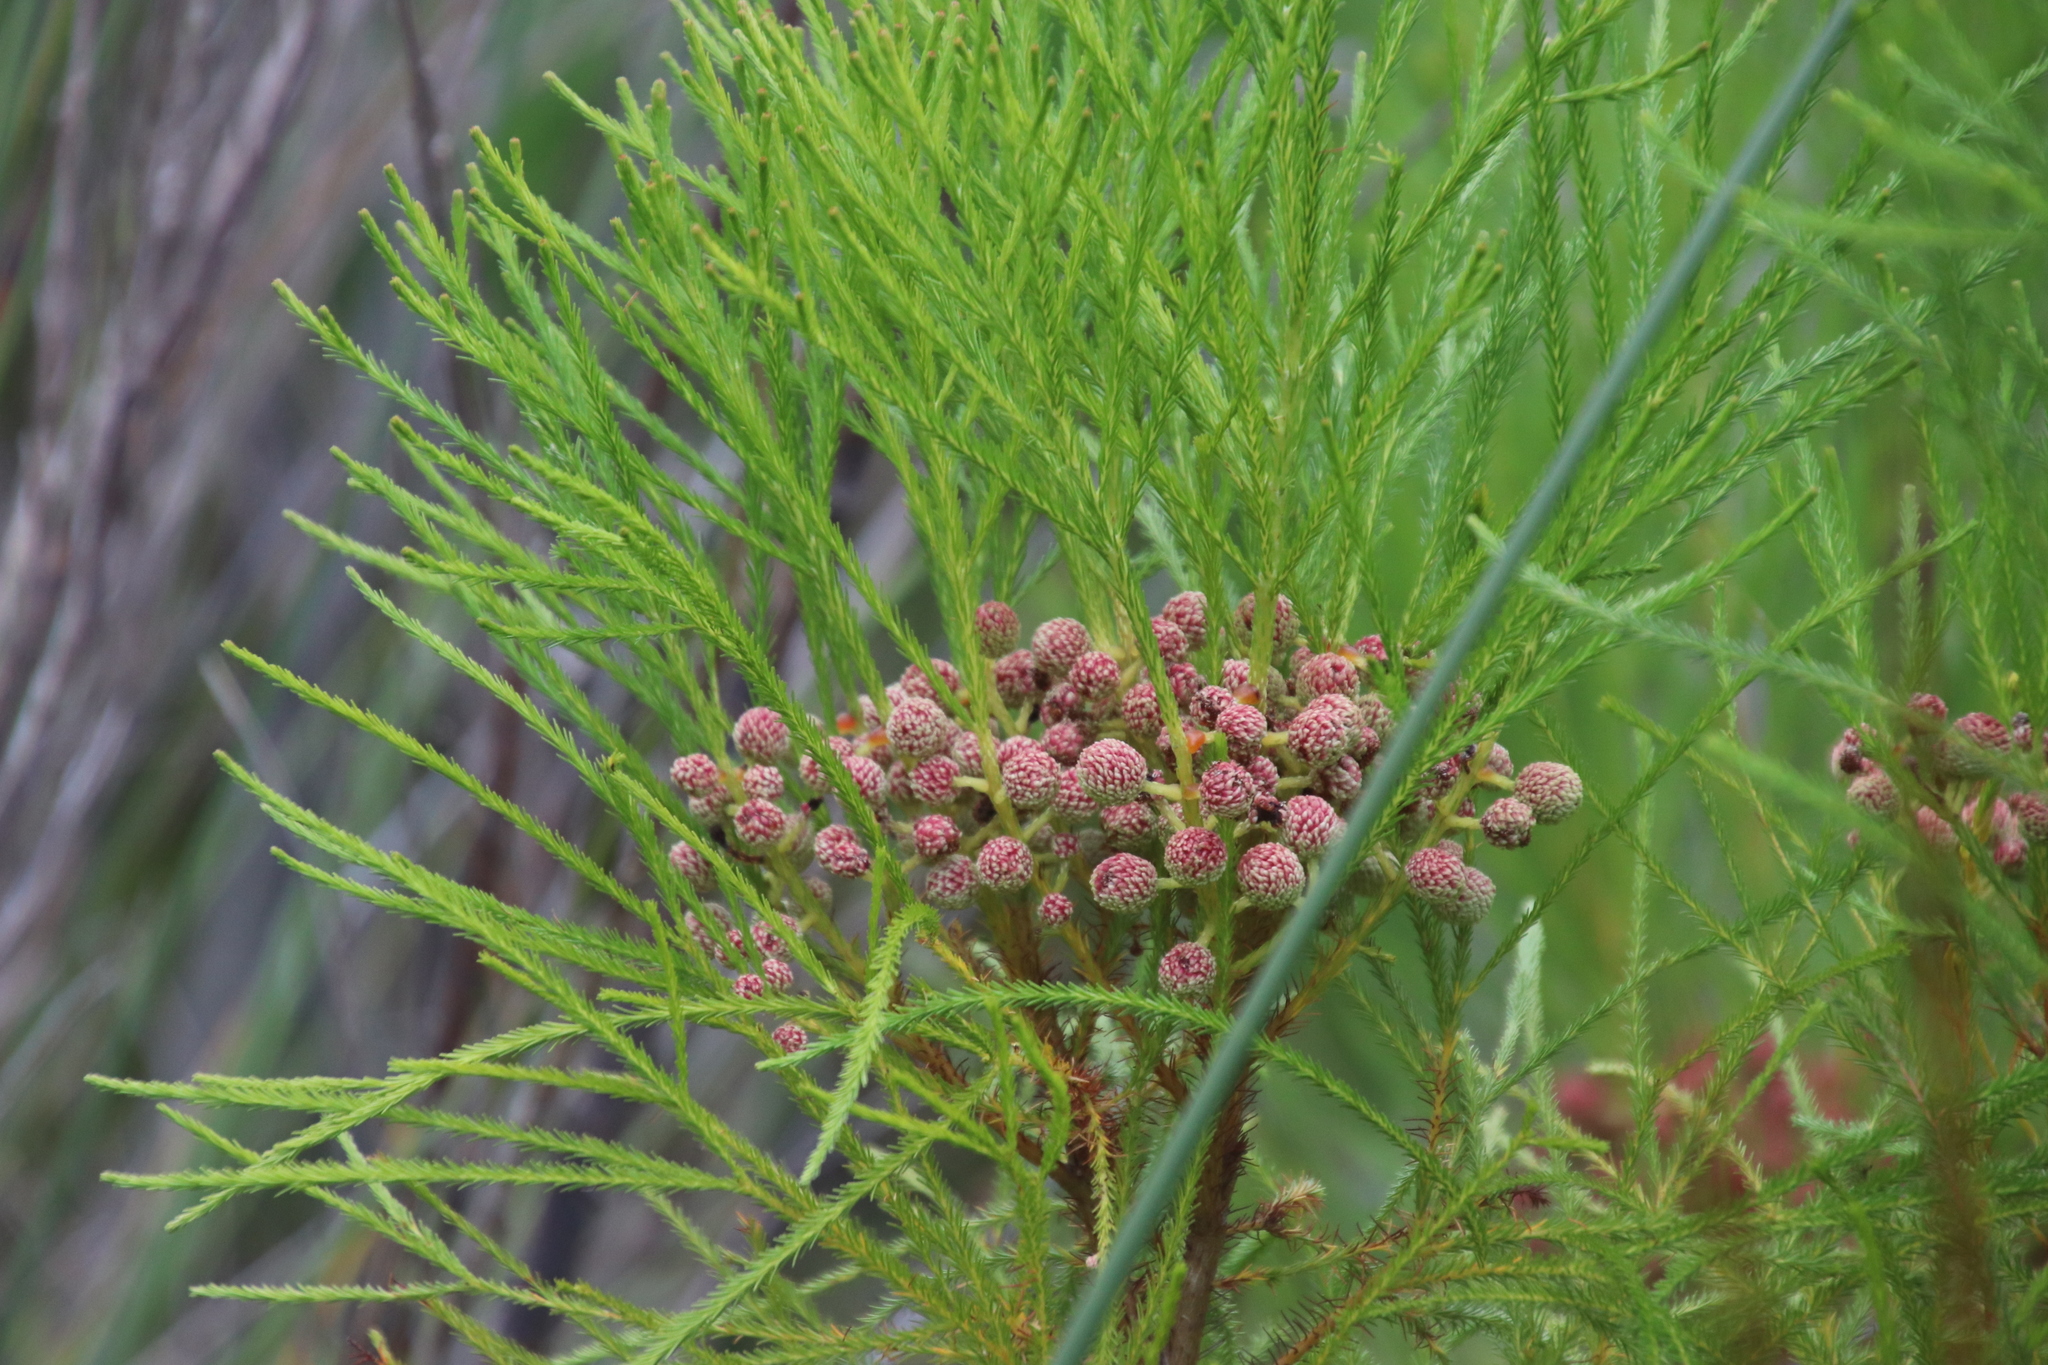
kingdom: Plantae
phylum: Tracheophyta
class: Magnoliopsida
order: Bruniales
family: Bruniaceae
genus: Berzelia
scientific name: Berzelia lanuginosa
